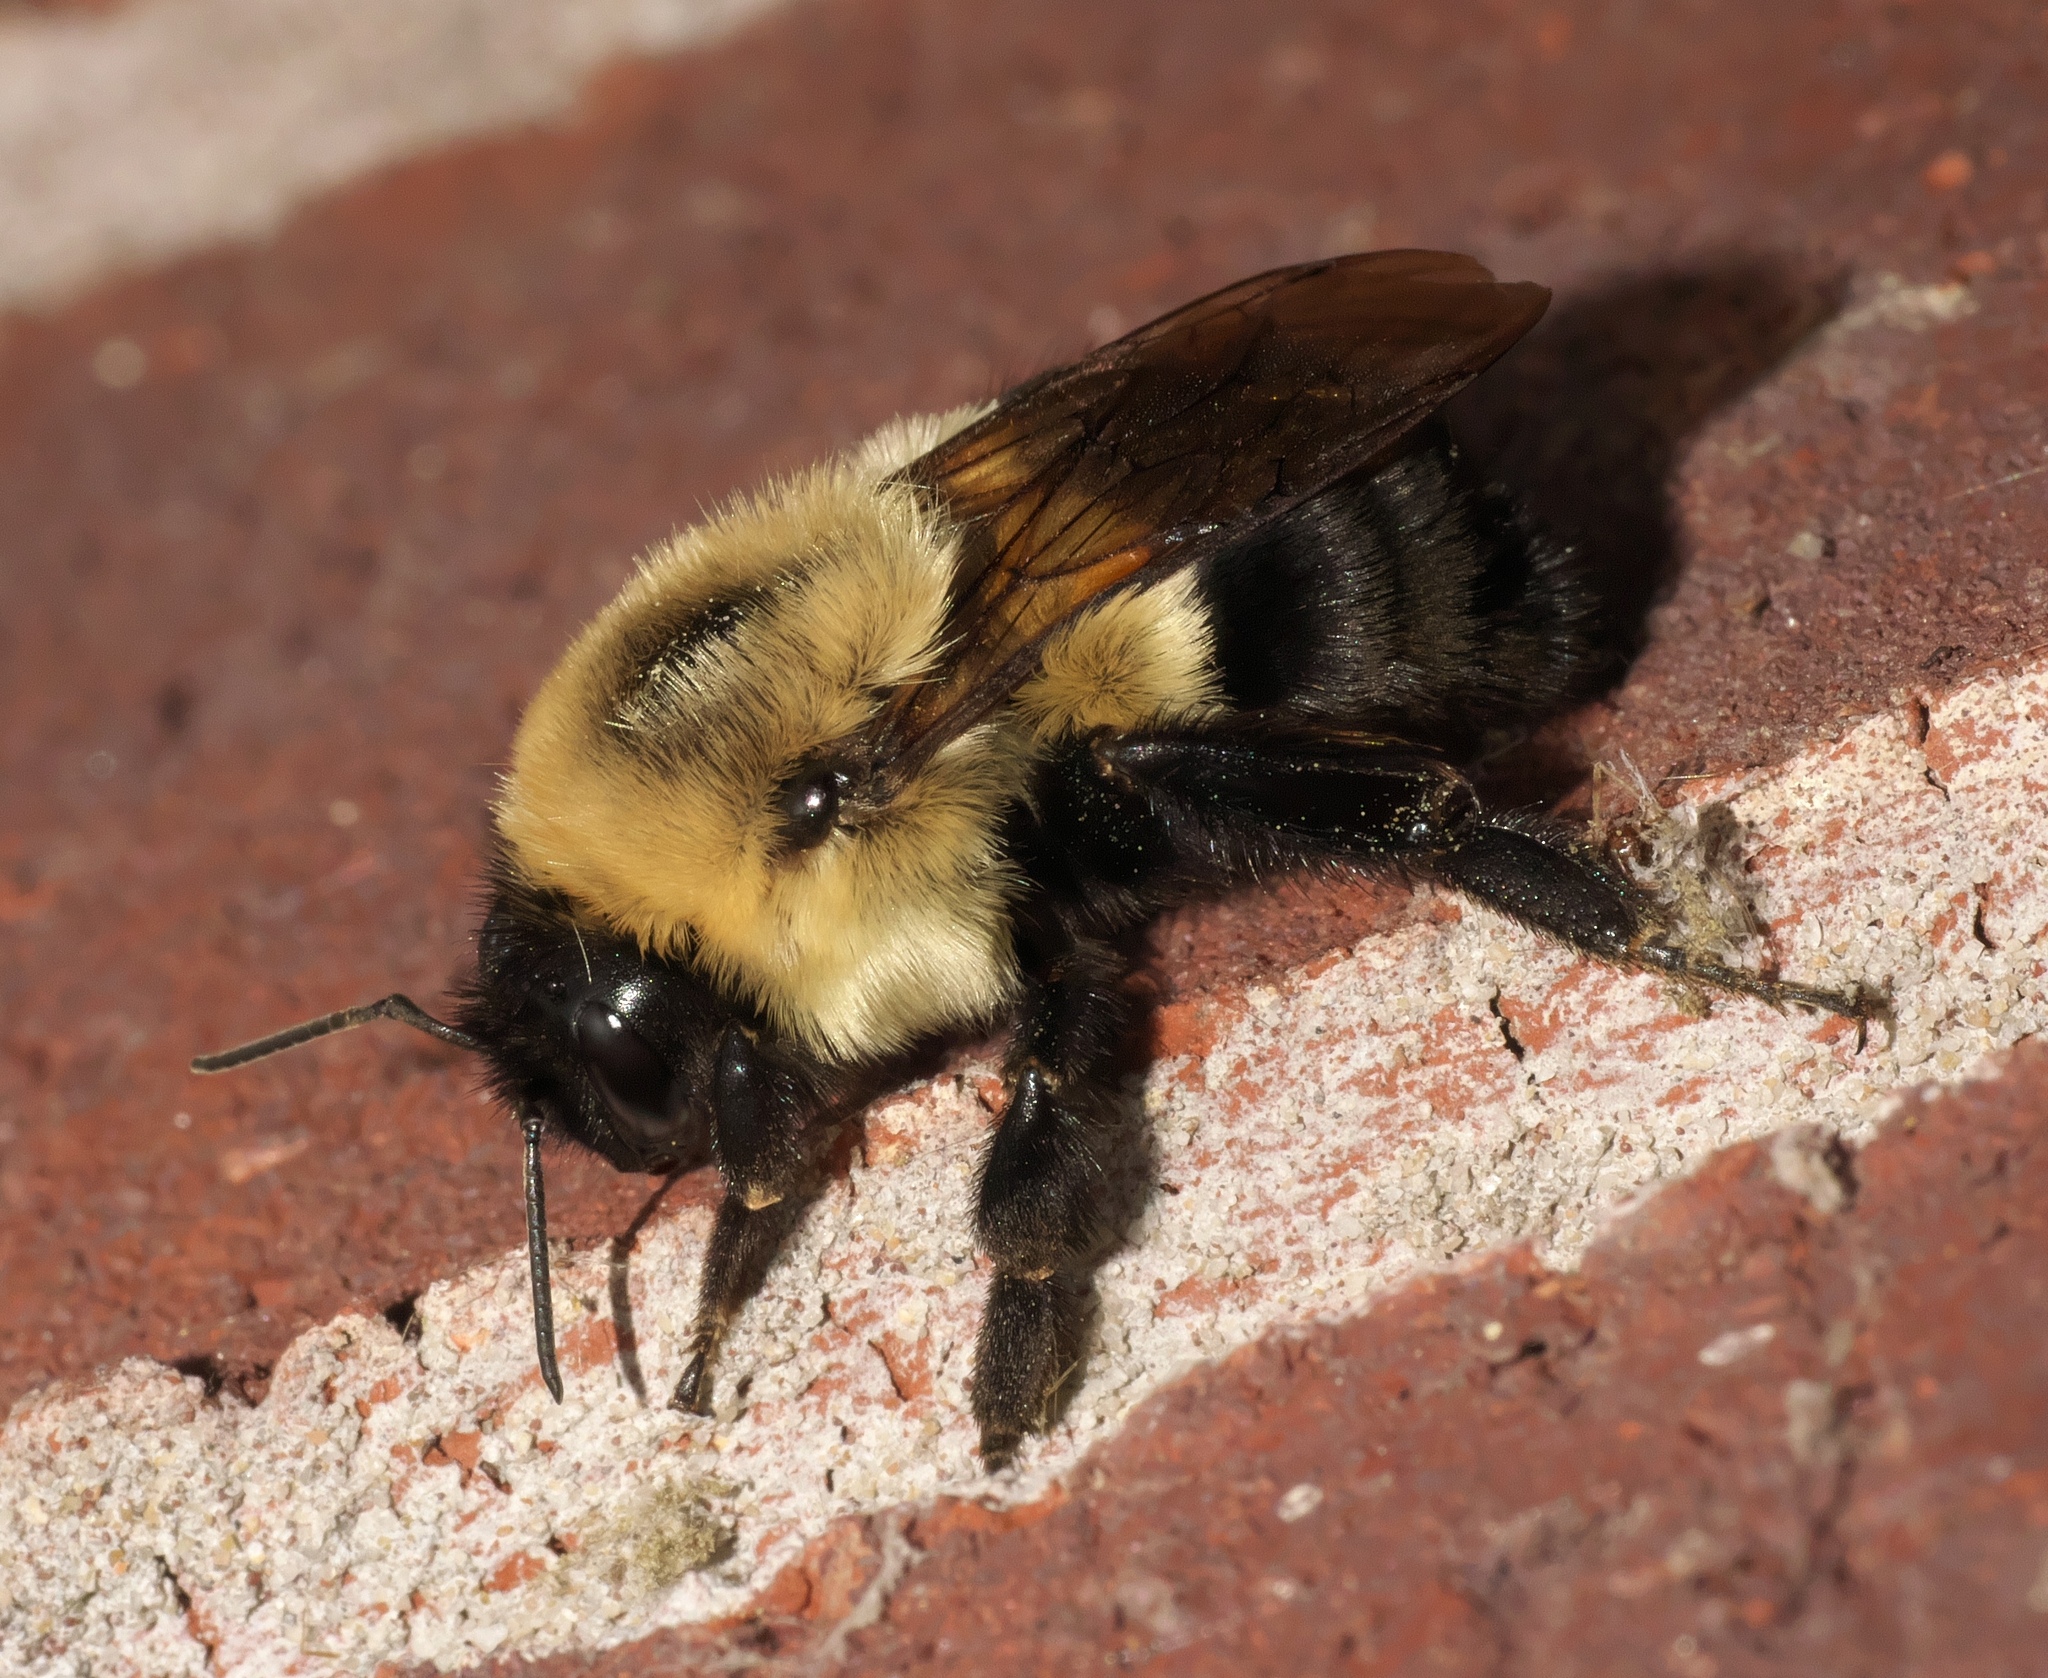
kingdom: Animalia
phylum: Arthropoda
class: Insecta
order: Hymenoptera
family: Apidae
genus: Bombus
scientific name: Bombus impatiens
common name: Common eastern bumble bee
